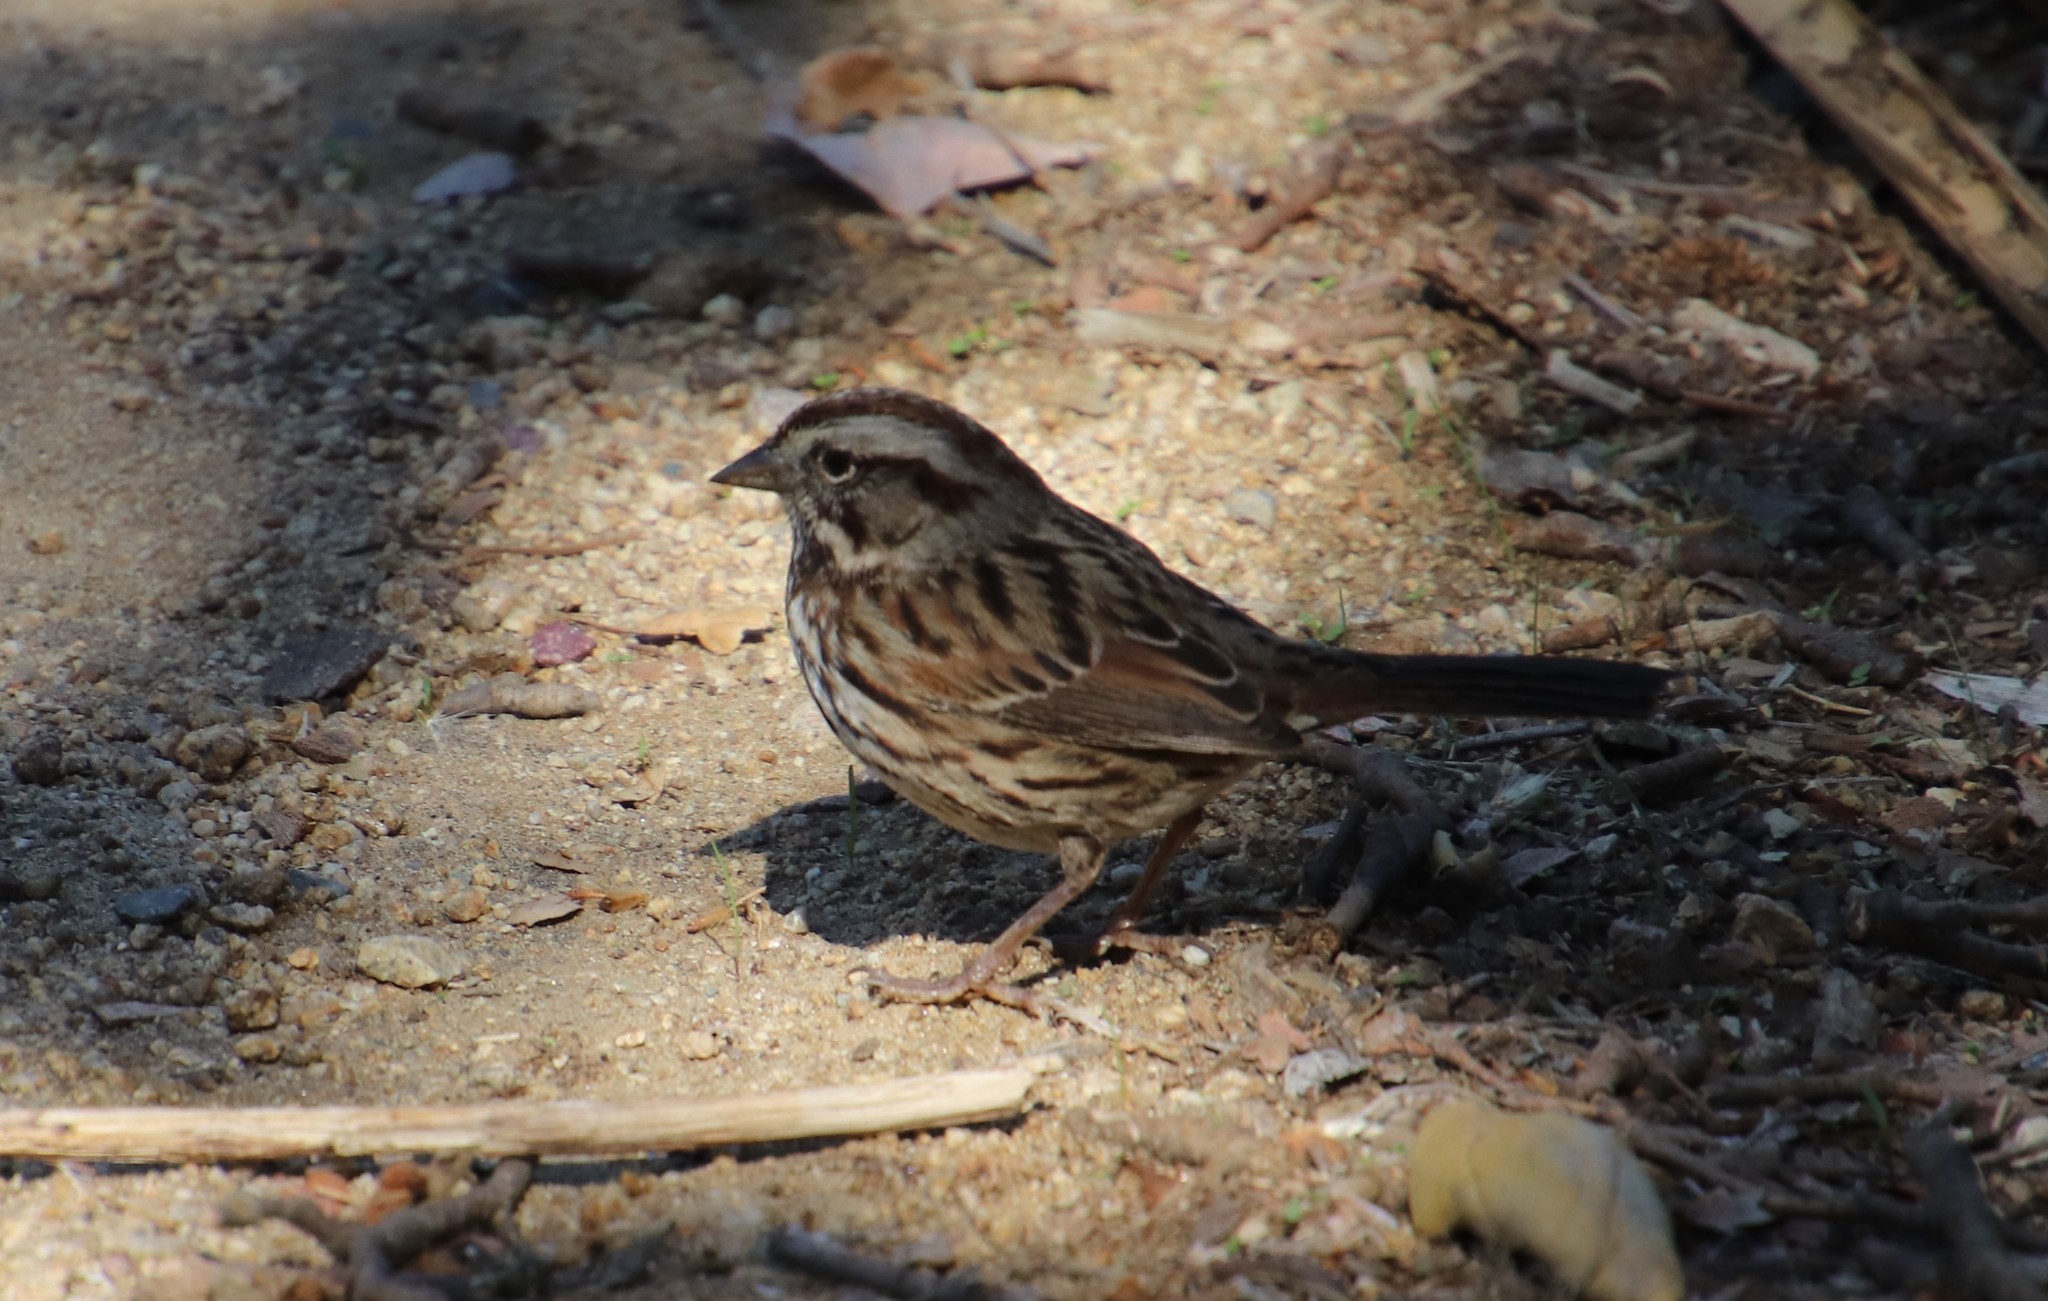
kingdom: Animalia
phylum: Chordata
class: Aves
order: Passeriformes
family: Passerellidae
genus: Melospiza
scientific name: Melospiza melodia
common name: Song sparrow
